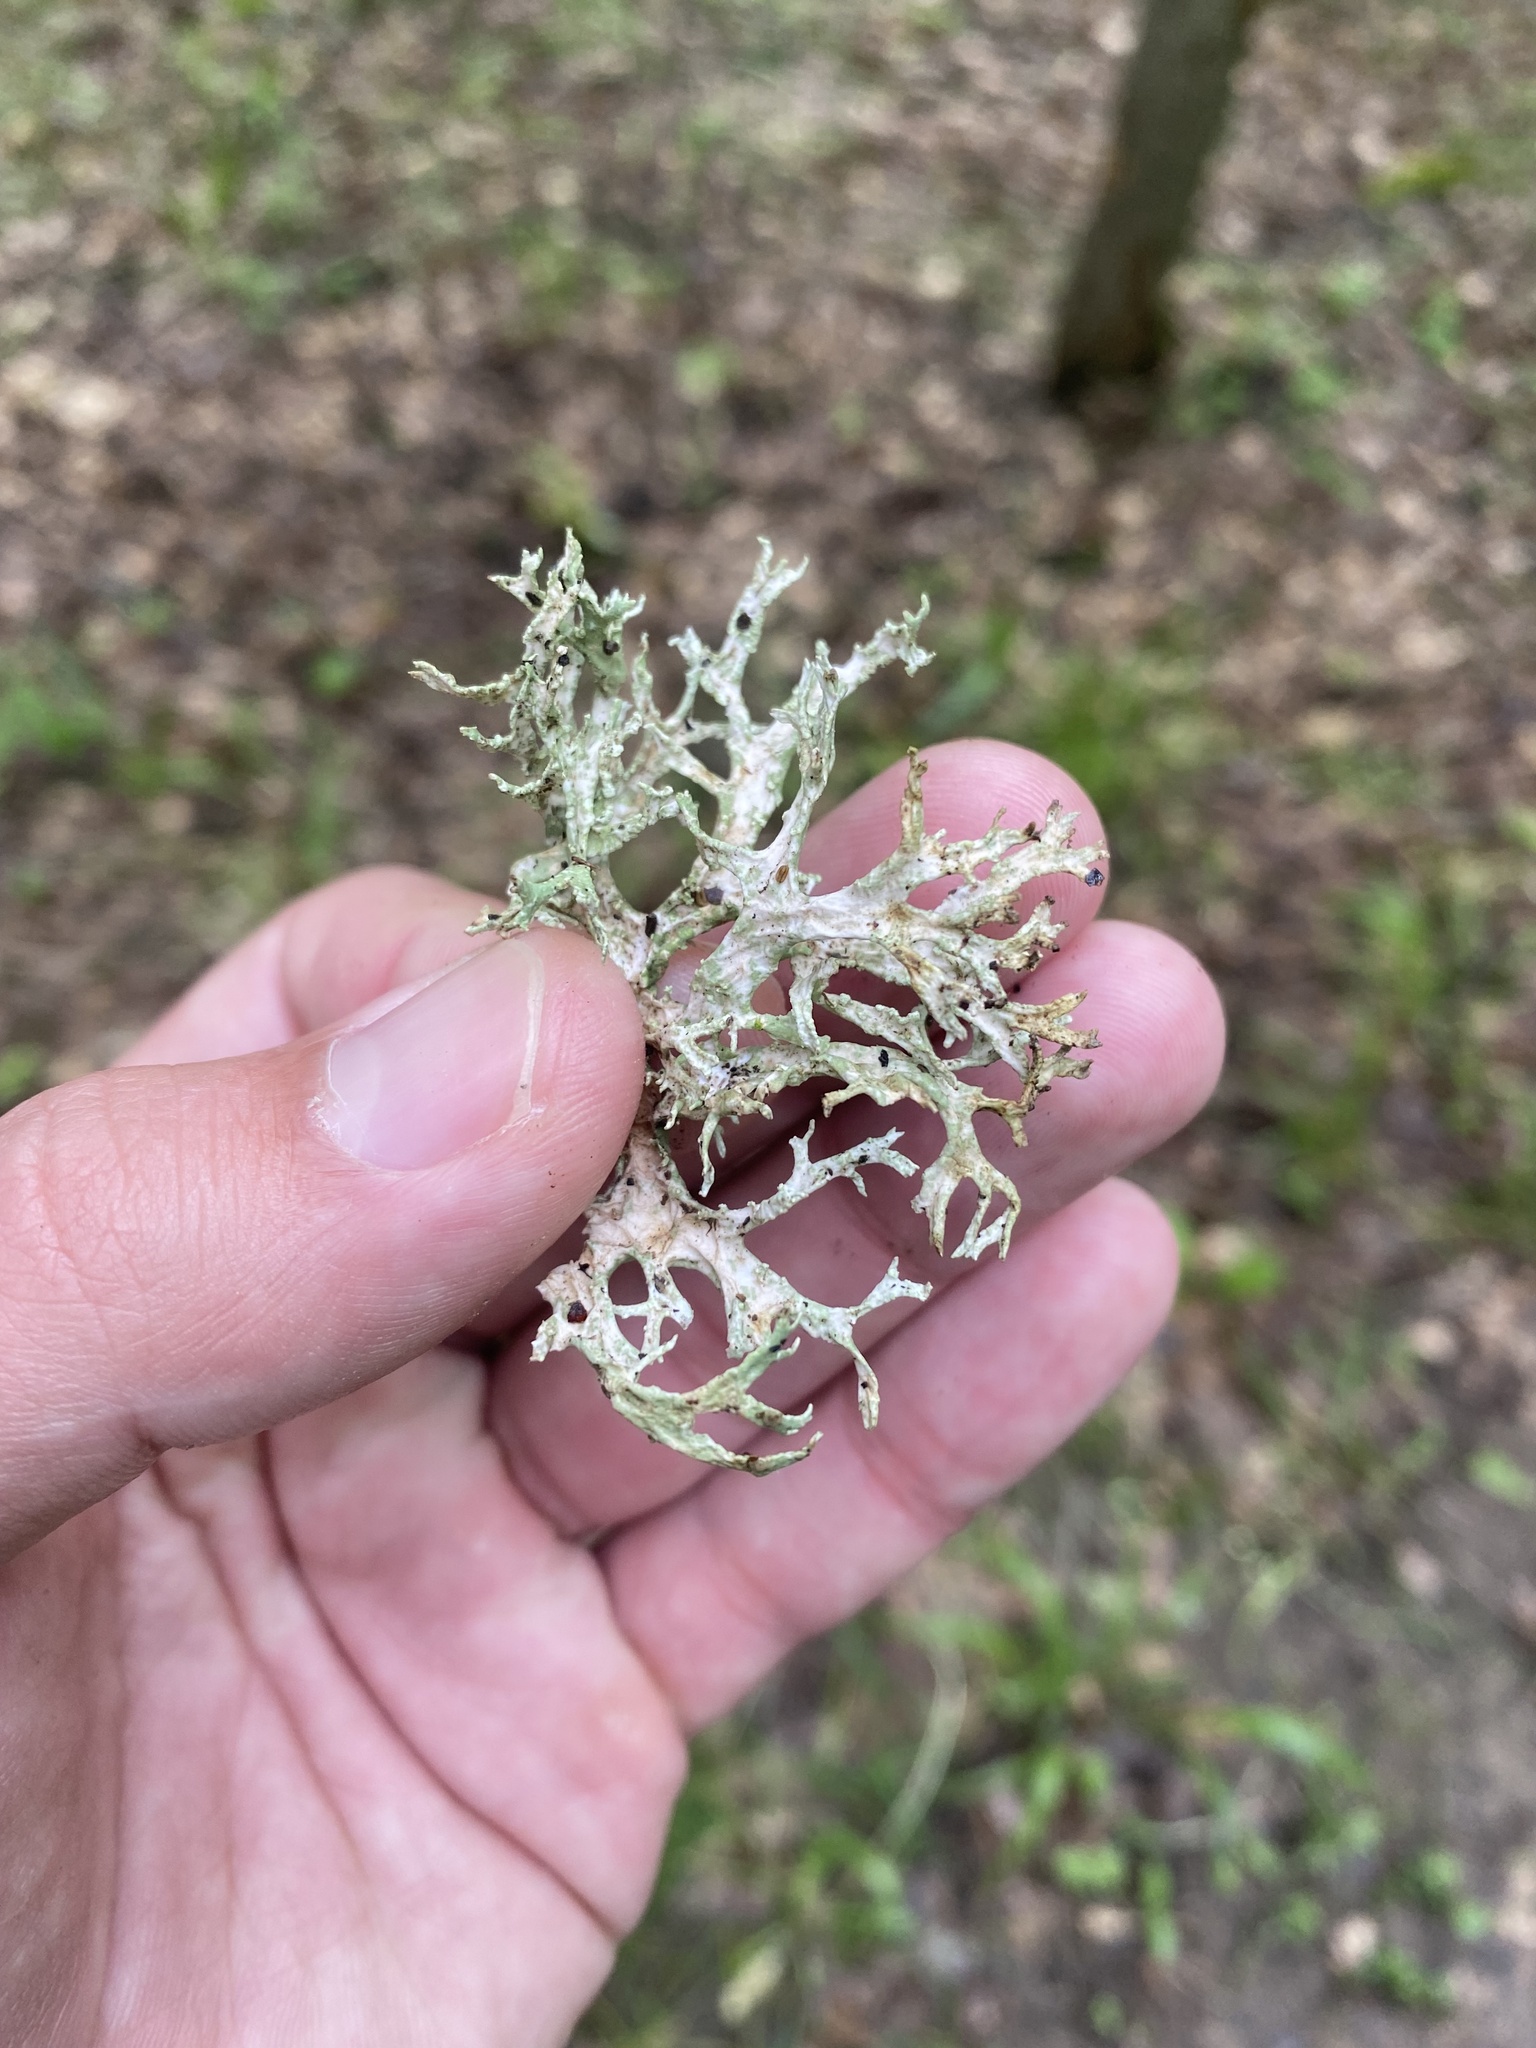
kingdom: Fungi
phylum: Ascomycota
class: Lecanoromycetes
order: Lecanorales
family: Parmeliaceae
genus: Evernia
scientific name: Evernia prunastri
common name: Oak moss
